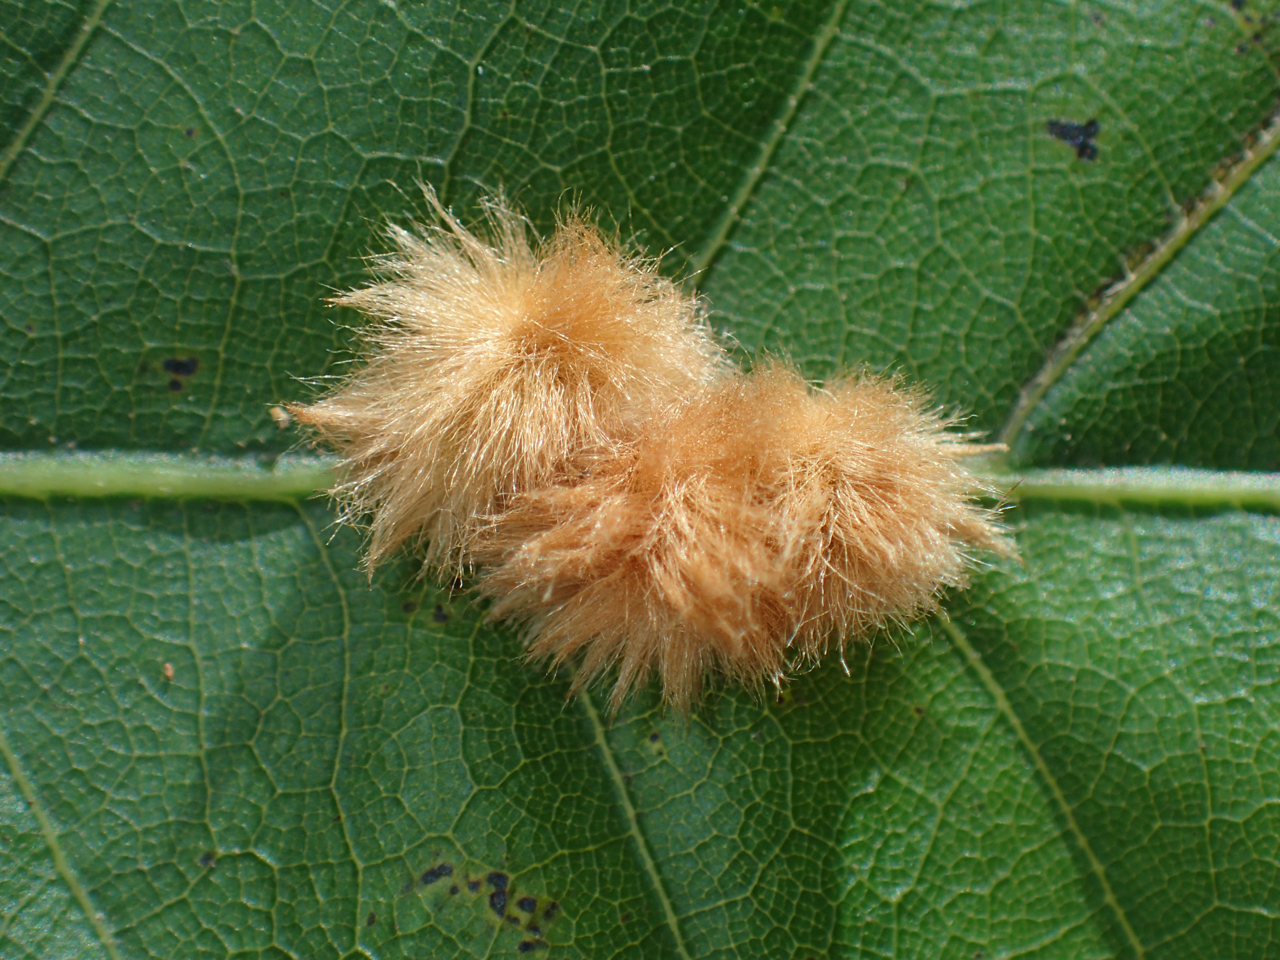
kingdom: Animalia
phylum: Arthropoda
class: Insecta
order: Hymenoptera
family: Cynipidae
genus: Callirhytis
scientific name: Callirhytis
